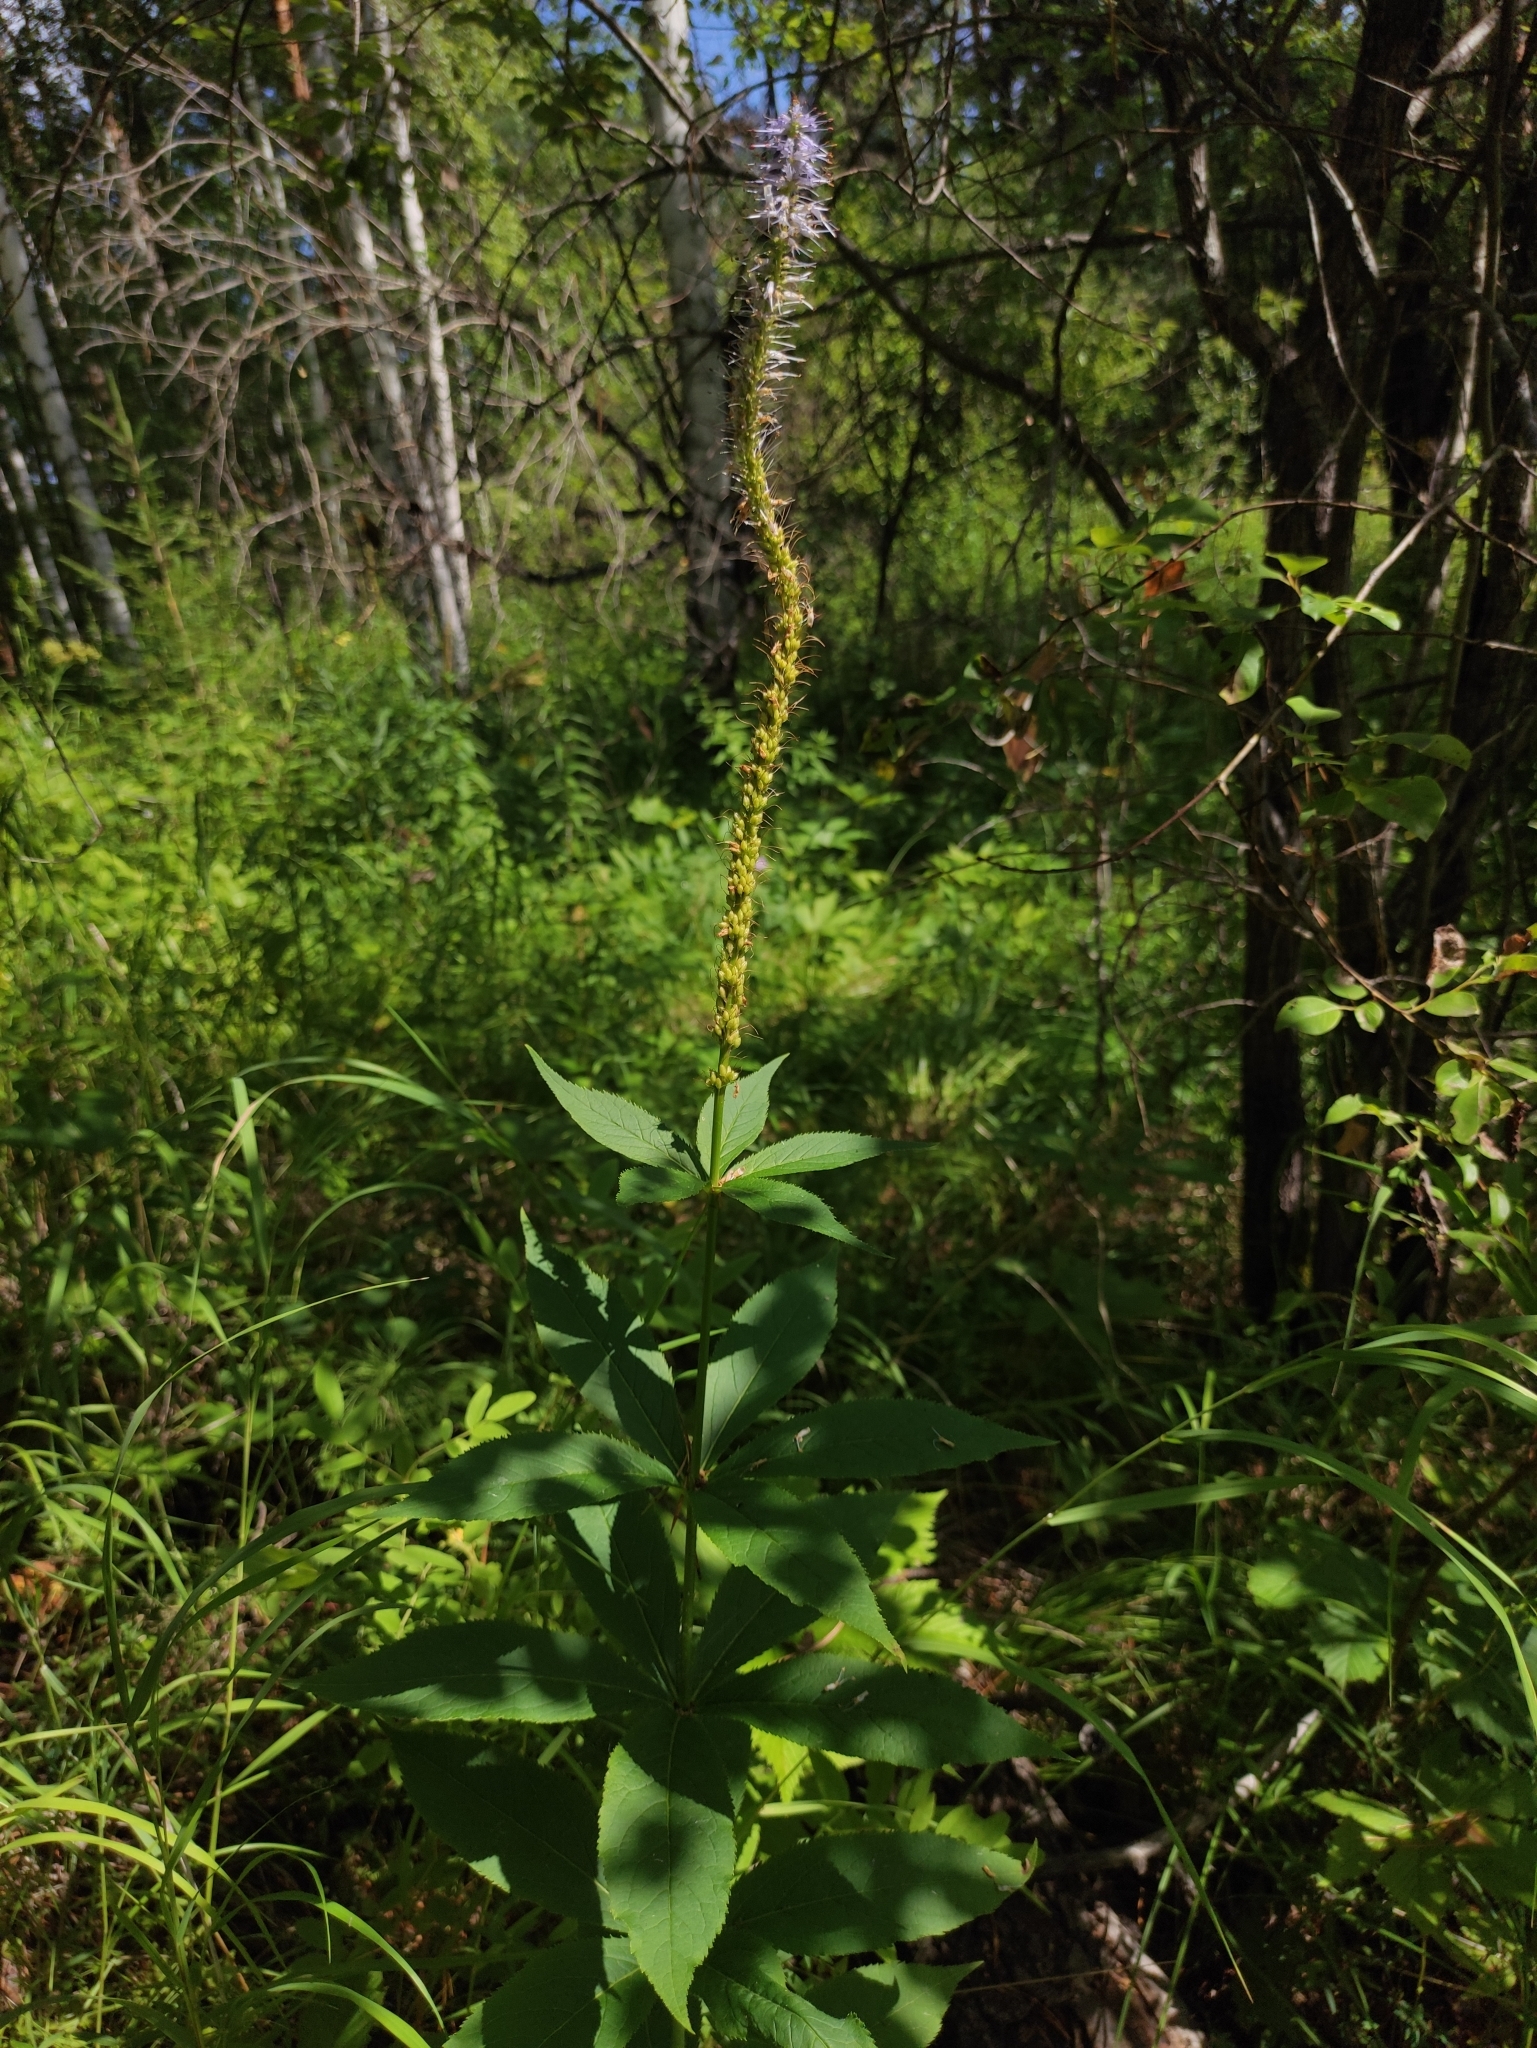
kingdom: Plantae
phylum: Tracheophyta
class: Magnoliopsida
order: Lamiales
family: Plantaginaceae
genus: Veronicastrum
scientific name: Veronicastrum sibiricum
